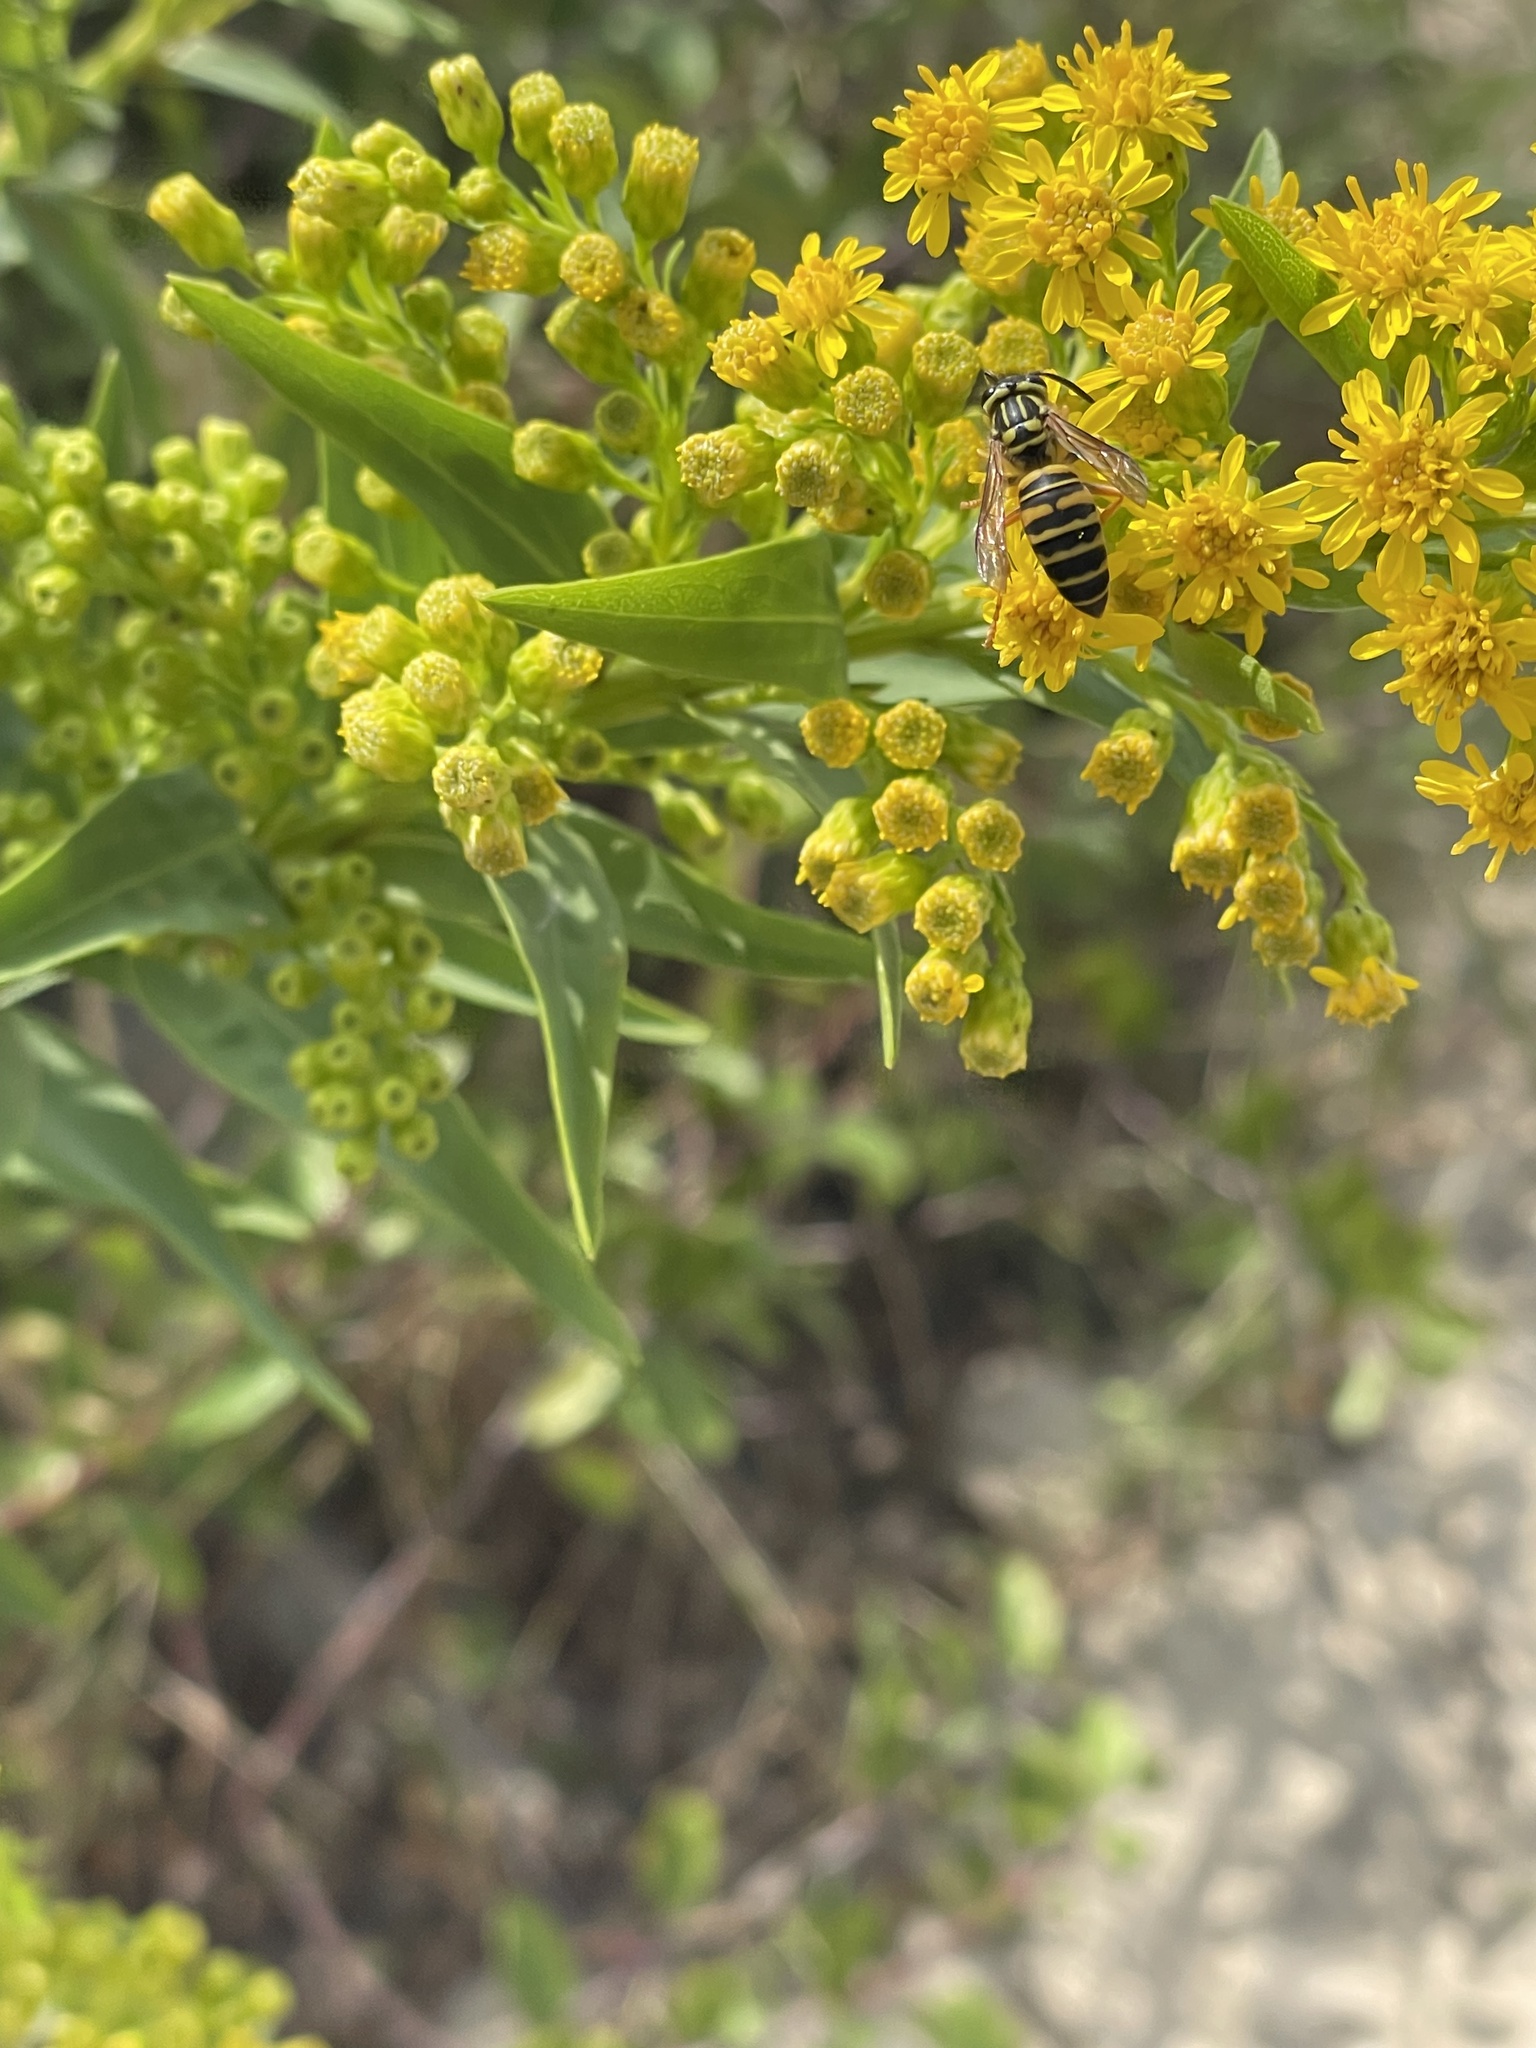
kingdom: Animalia
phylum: Arthropoda
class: Insecta
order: Hymenoptera
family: Vespidae
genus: Vespula
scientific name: Vespula squamosa
